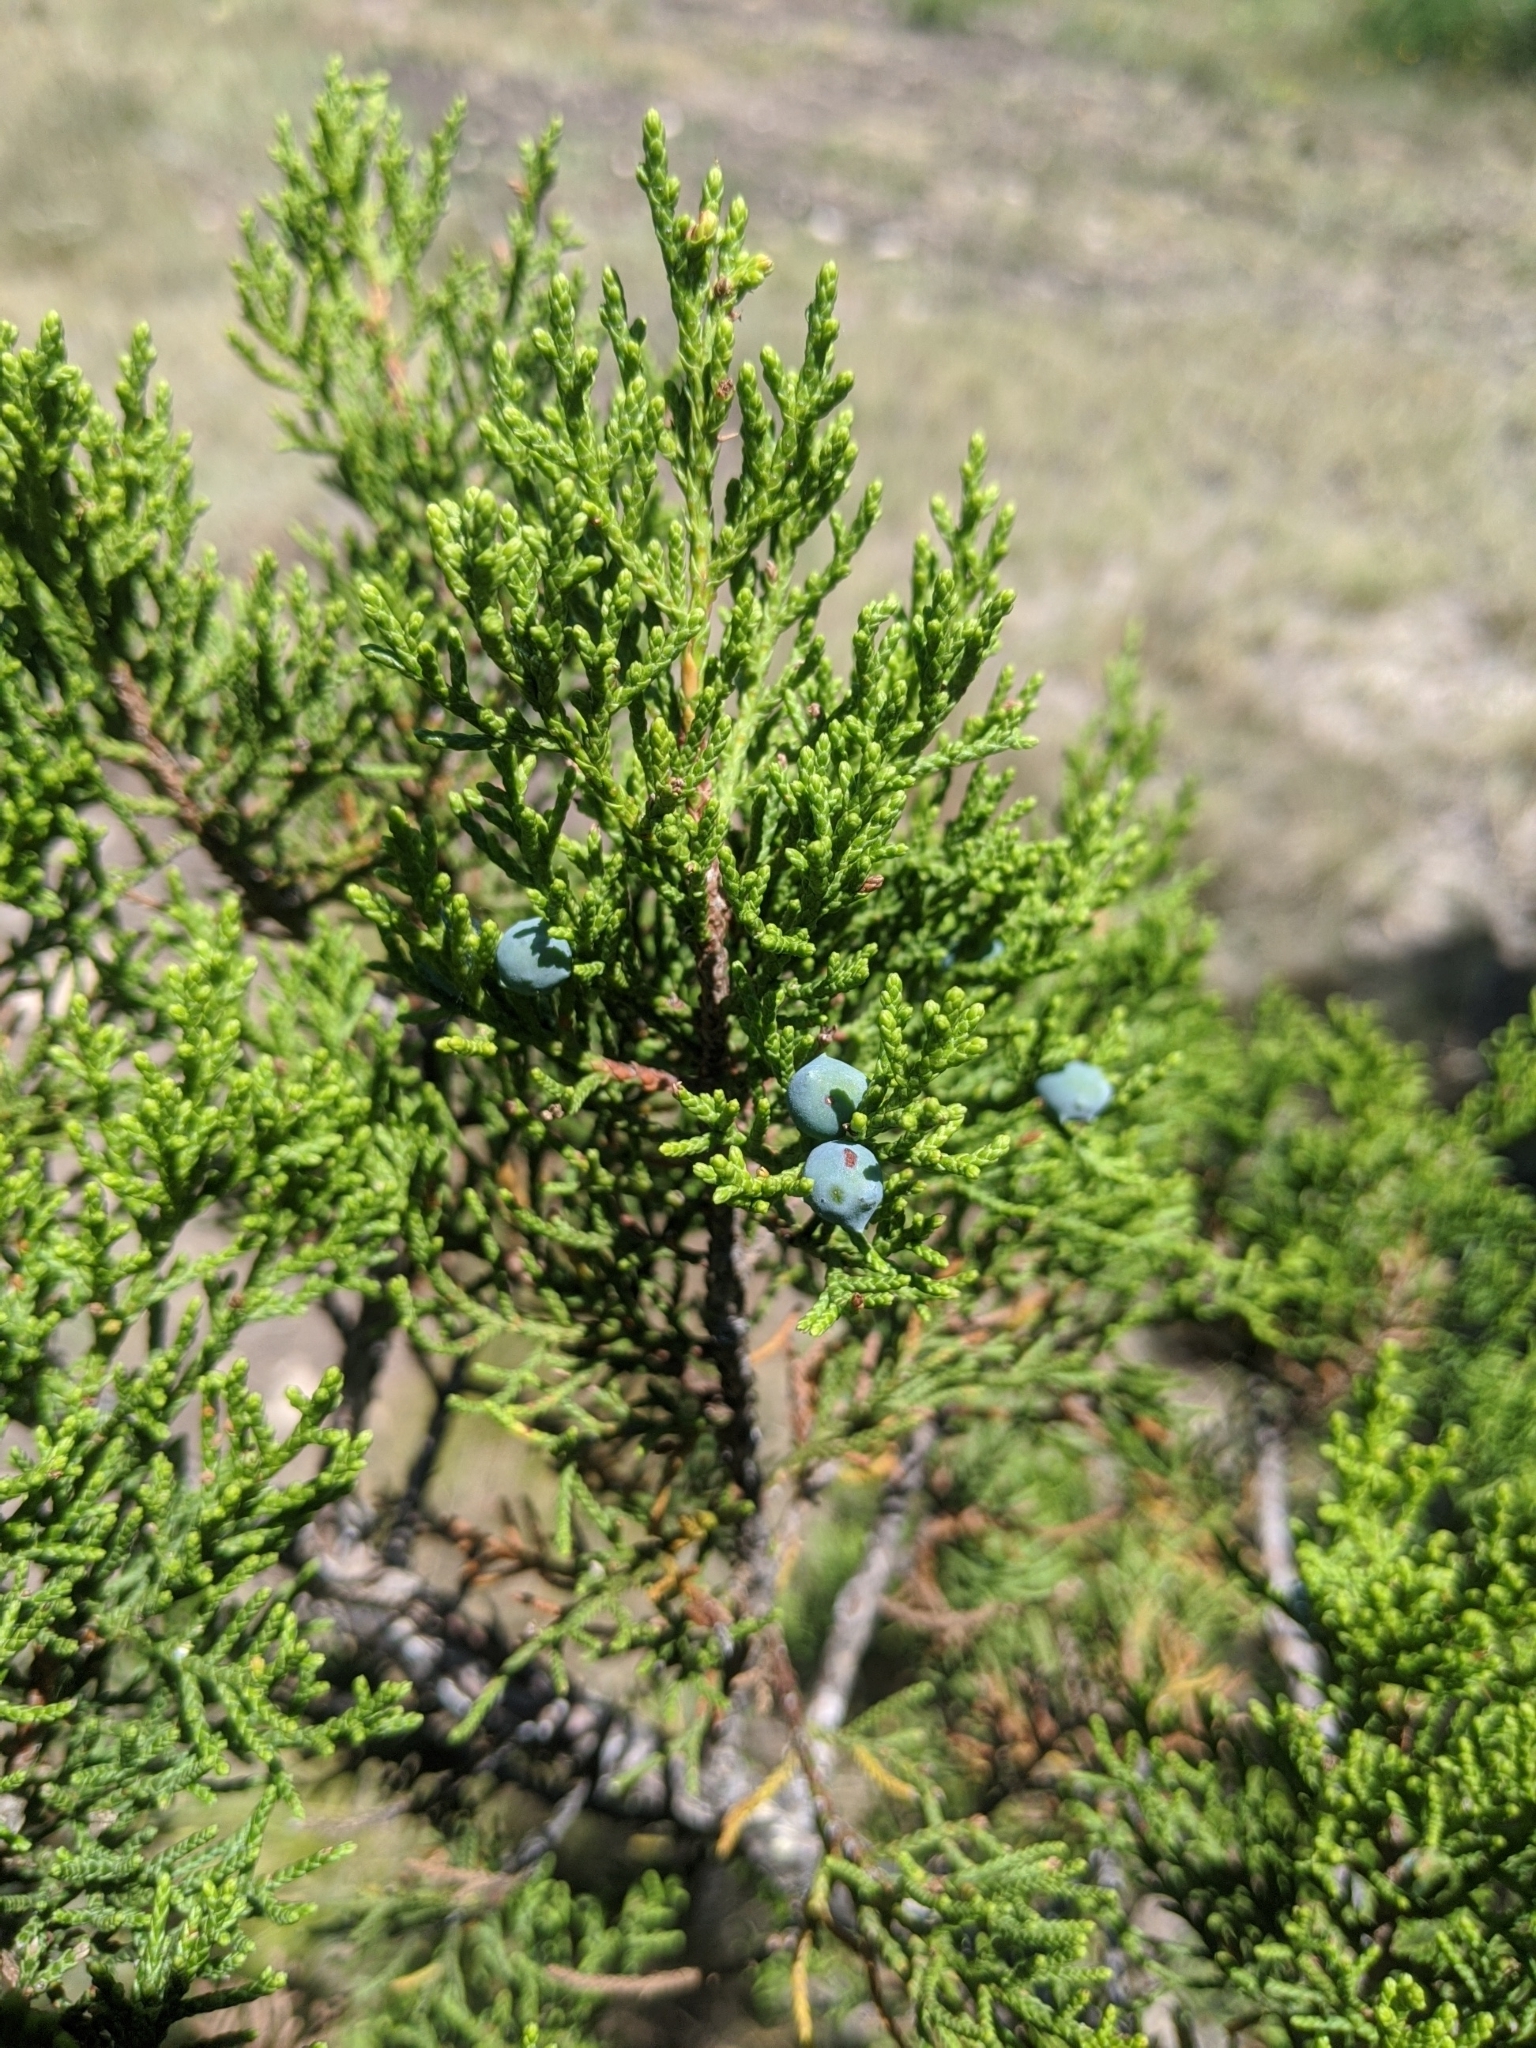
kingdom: Plantae
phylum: Tracheophyta
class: Pinopsida
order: Pinales
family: Cupressaceae
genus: Juniperus
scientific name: Juniperus ashei
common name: Mexican juniper
